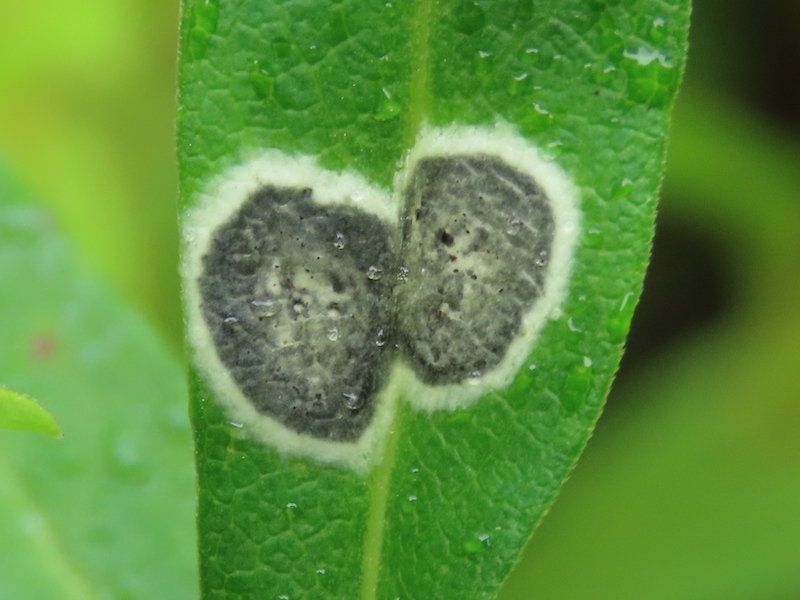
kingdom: Animalia
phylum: Arthropoda
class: Insecta
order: Diptera
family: Cecidomyiidae
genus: Asteromyia
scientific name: Asteromyia carbonifera
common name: Carbonifera goldenrod gall midge
